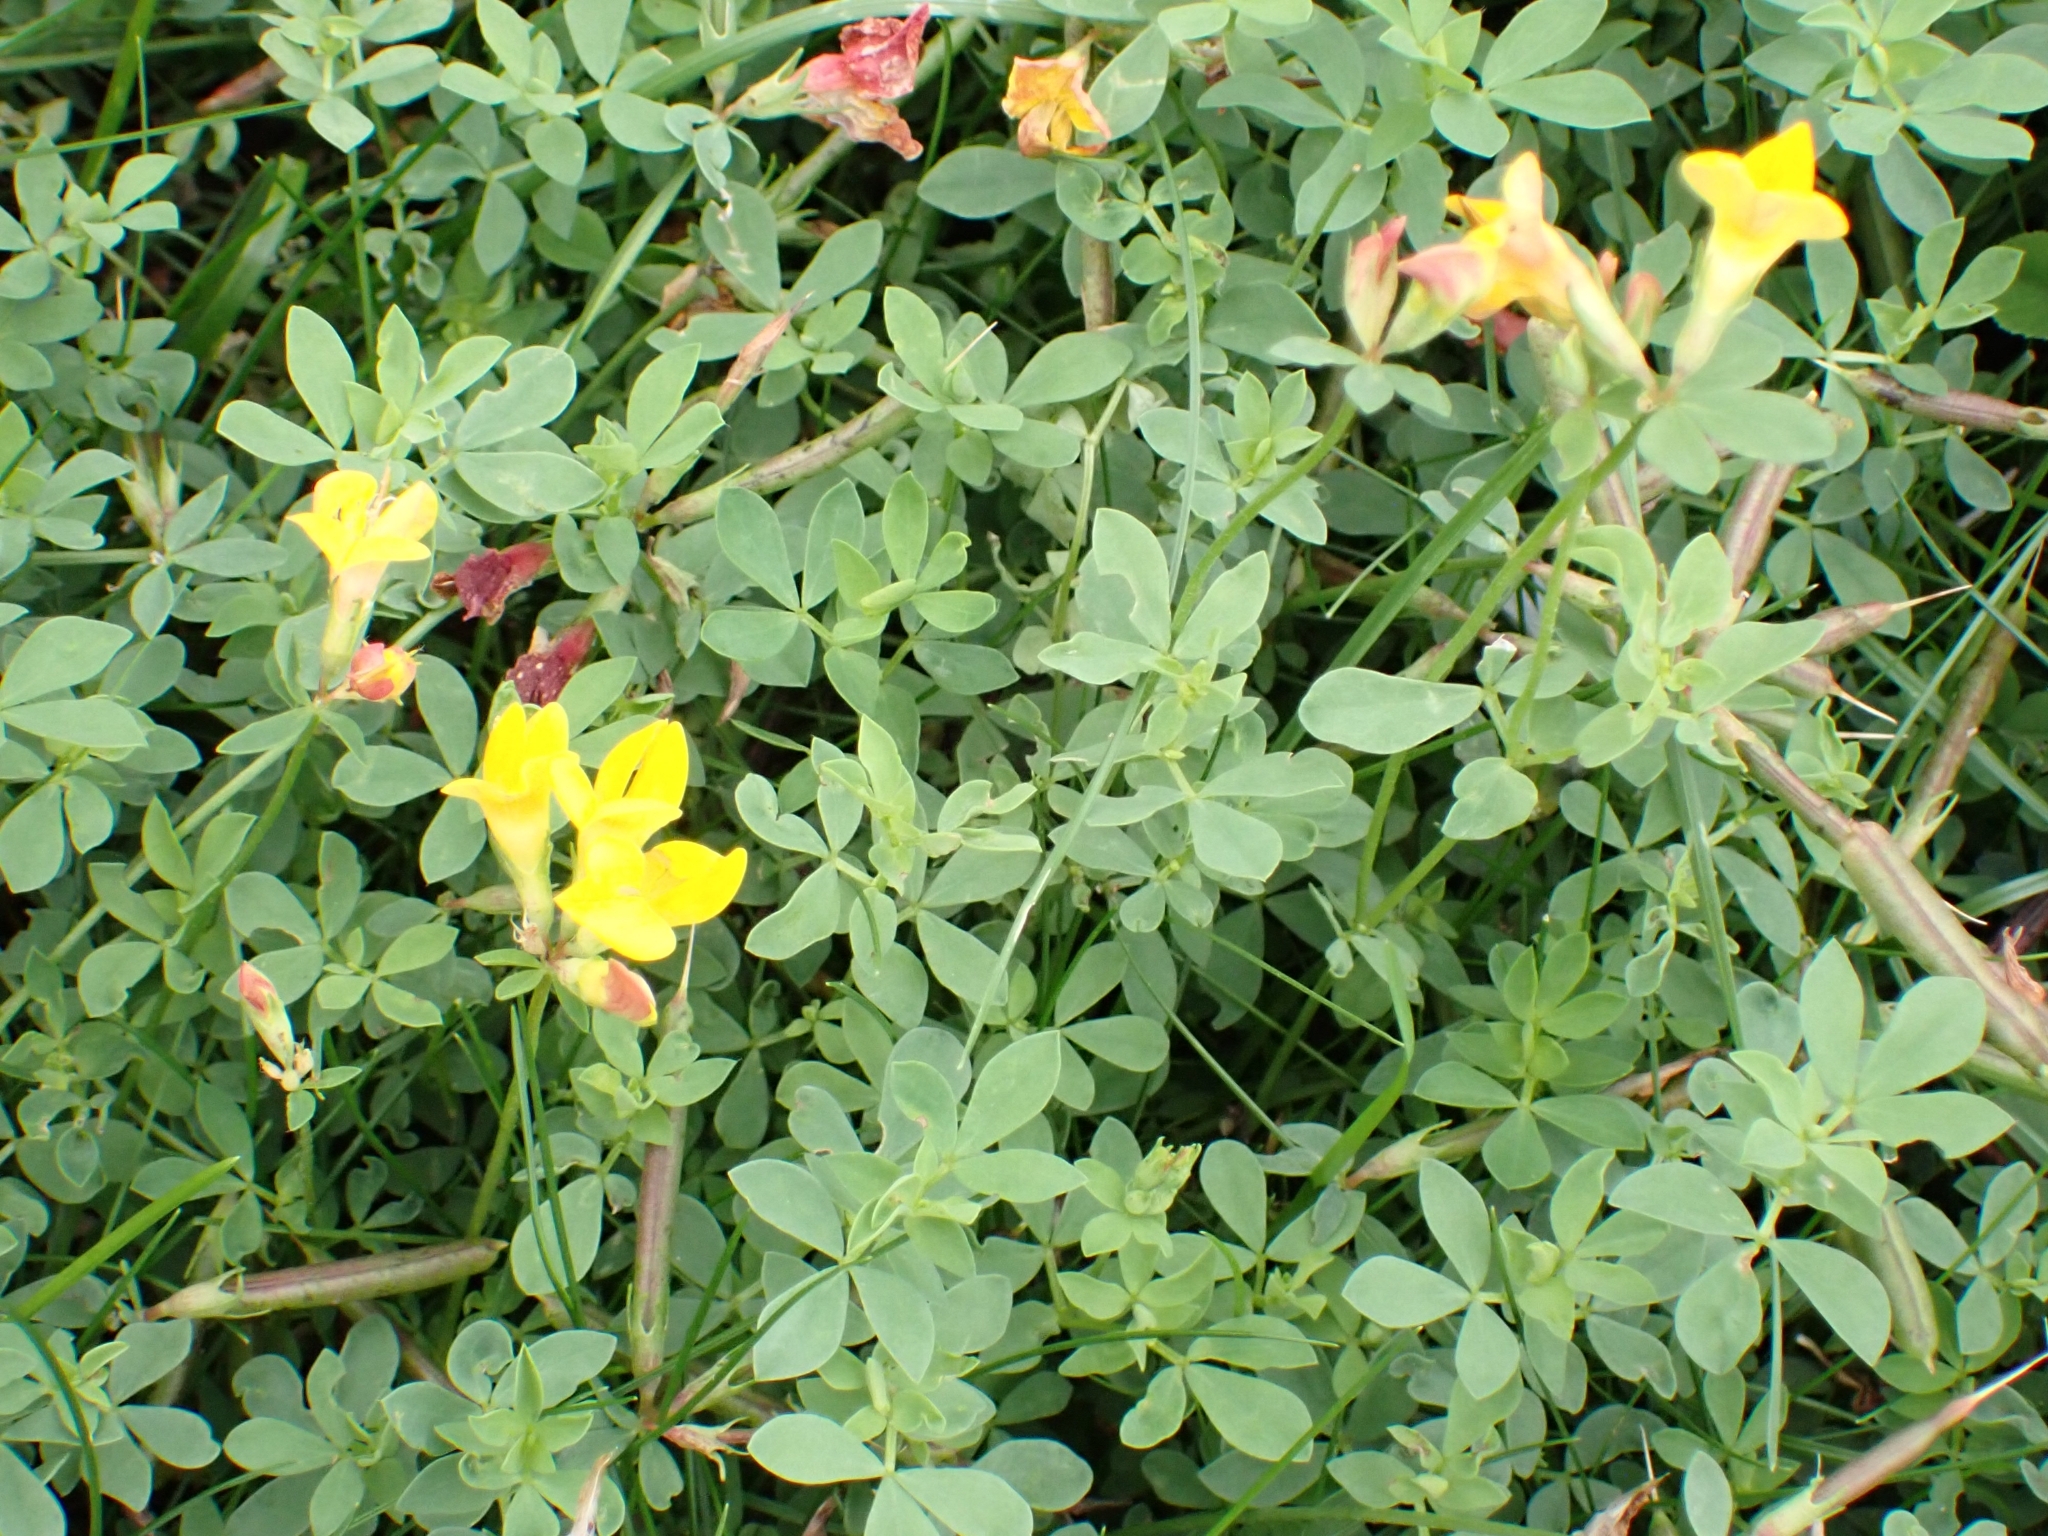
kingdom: Plantae
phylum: Tracheophyta
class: Magnoliopsida
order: Fabales
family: Fabaceae
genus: Lotus
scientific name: Lotus corniculatus
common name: Common bird's-foot-trefoil
